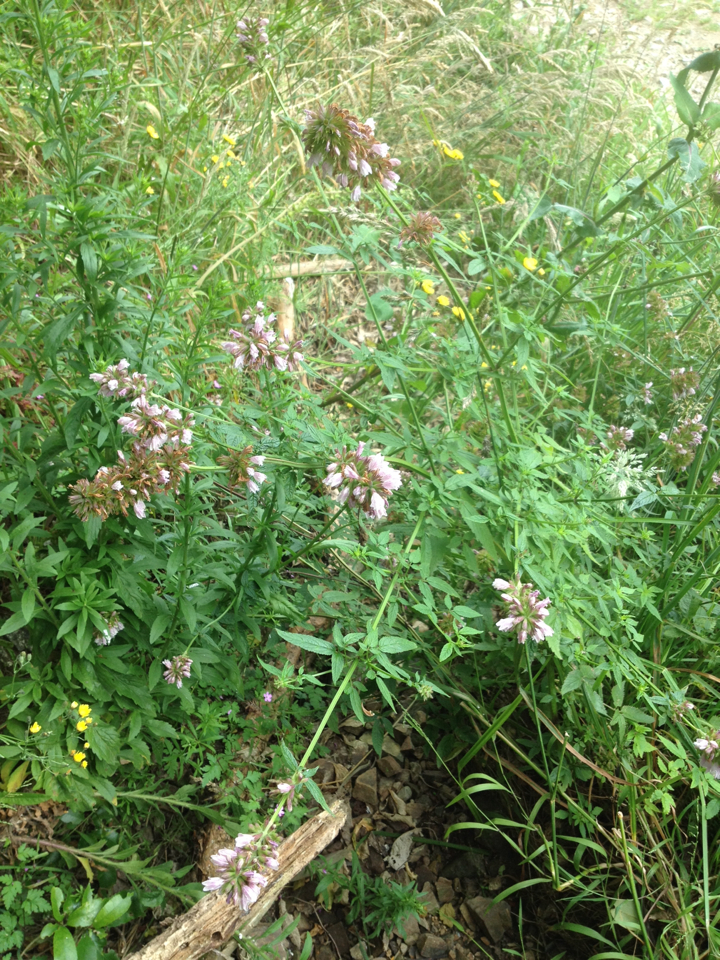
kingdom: Plantae
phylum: Tracheophyta
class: Magnoliopsida
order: Lamiales
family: Lamiaceae
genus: Cedronella
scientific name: Cedronella canariensis
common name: Canary islands balm
